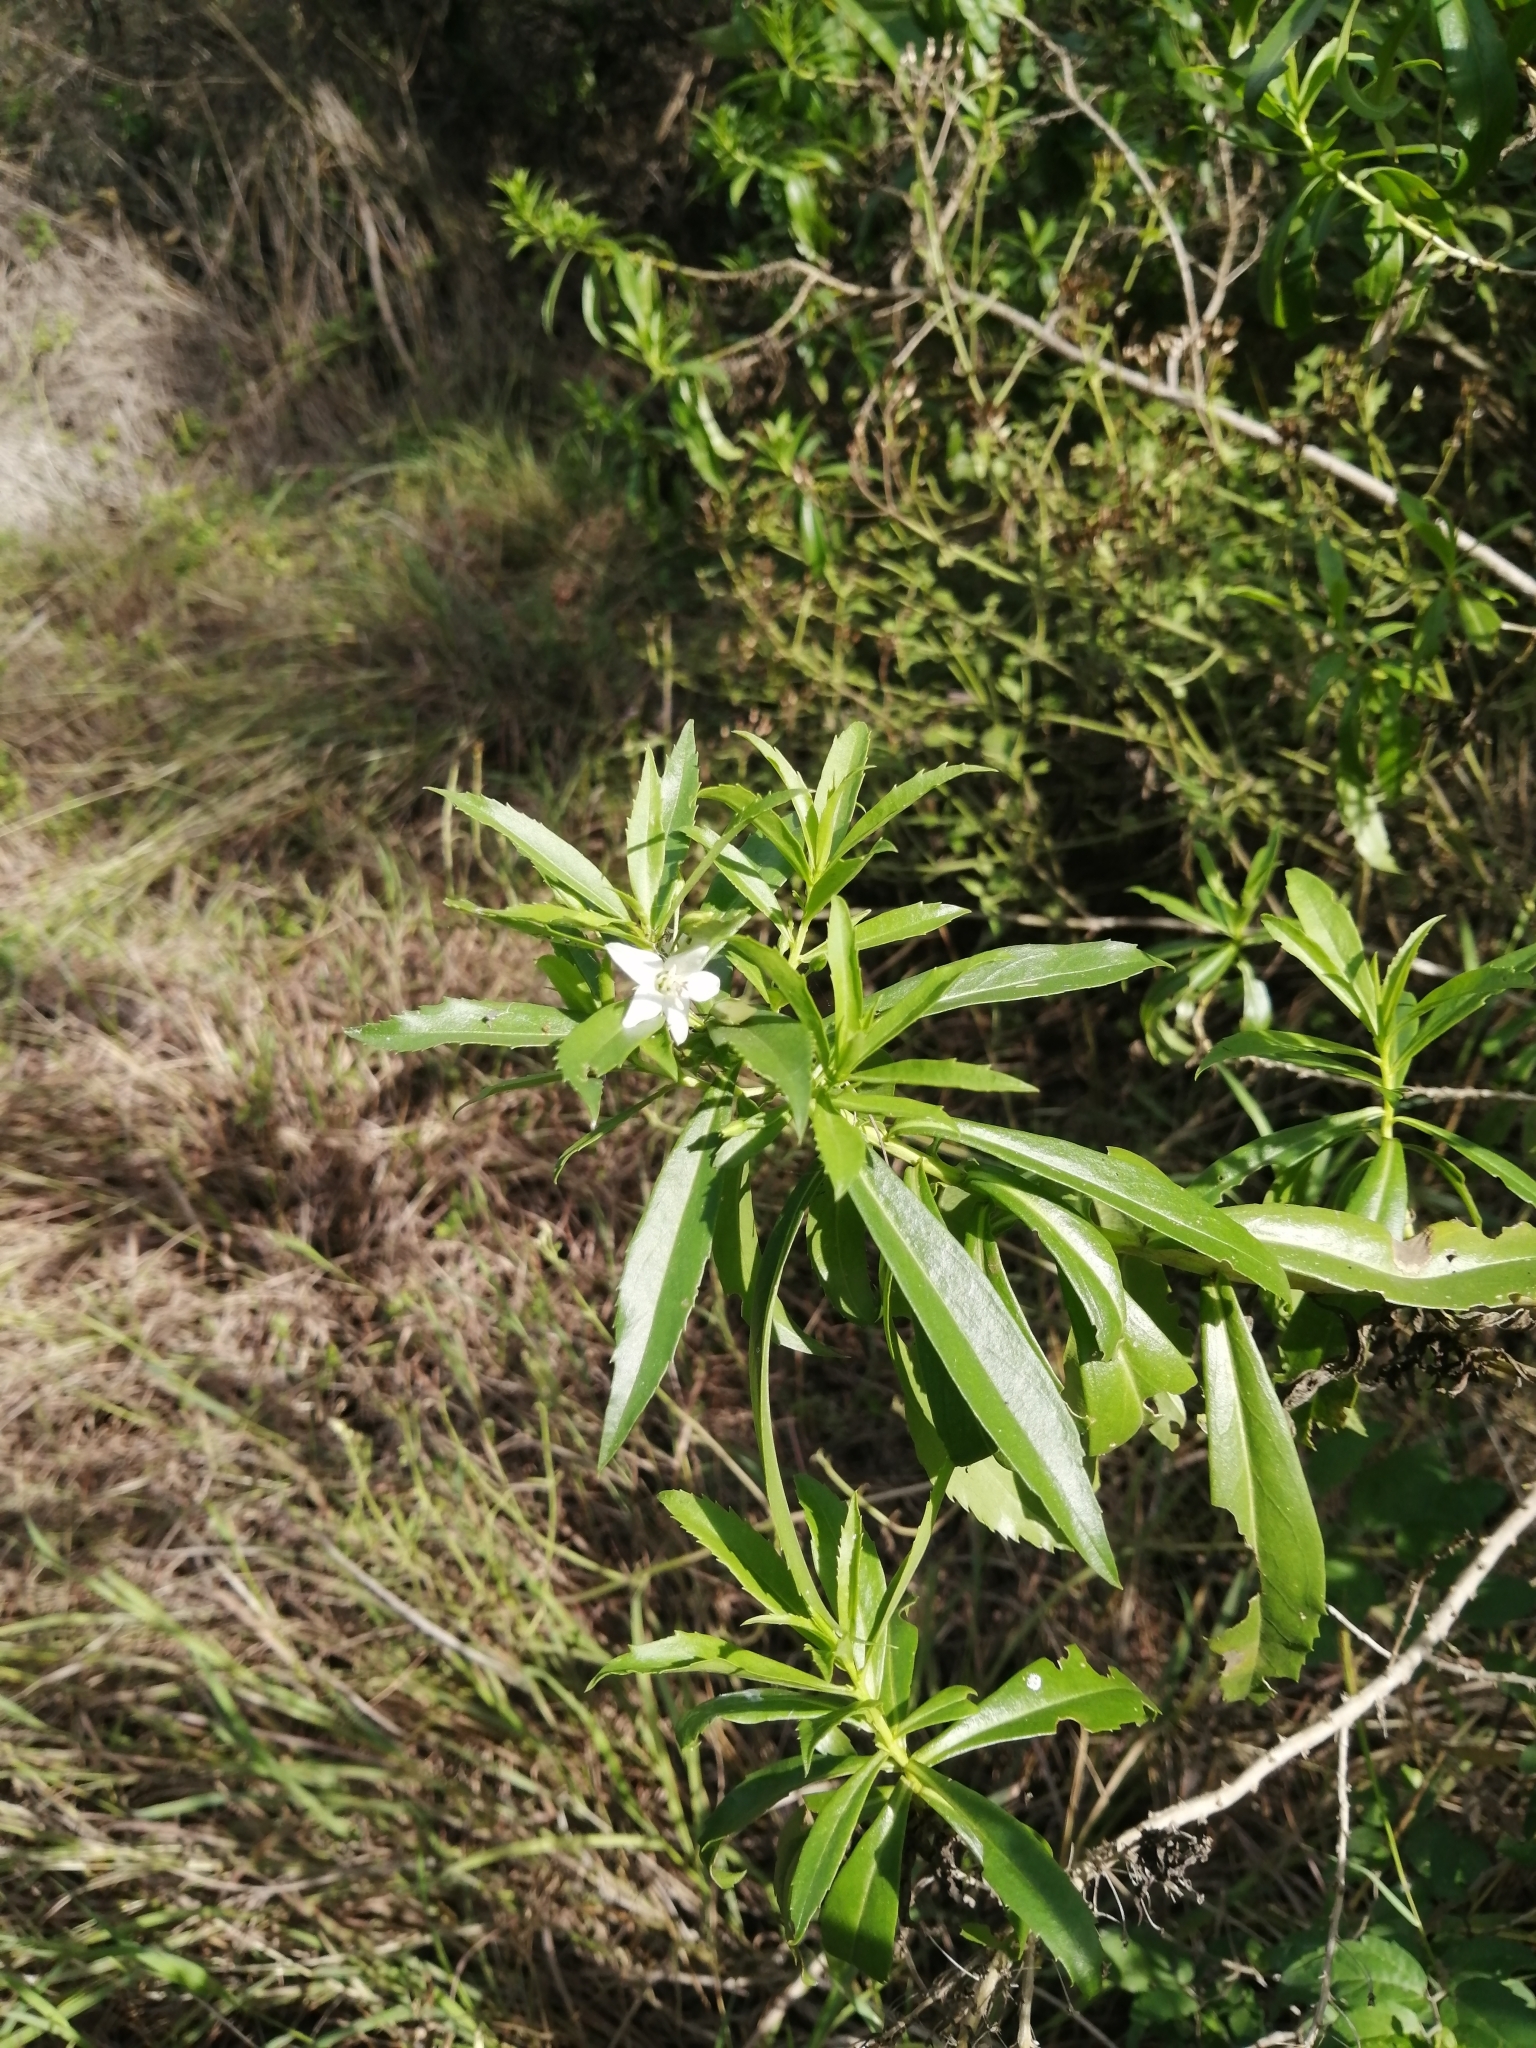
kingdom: Plantae
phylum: Tracheophyta
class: Magnoliopsida
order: Lamiales
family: Scrophulariaceae
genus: Capraria
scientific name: Capraria mexicana
